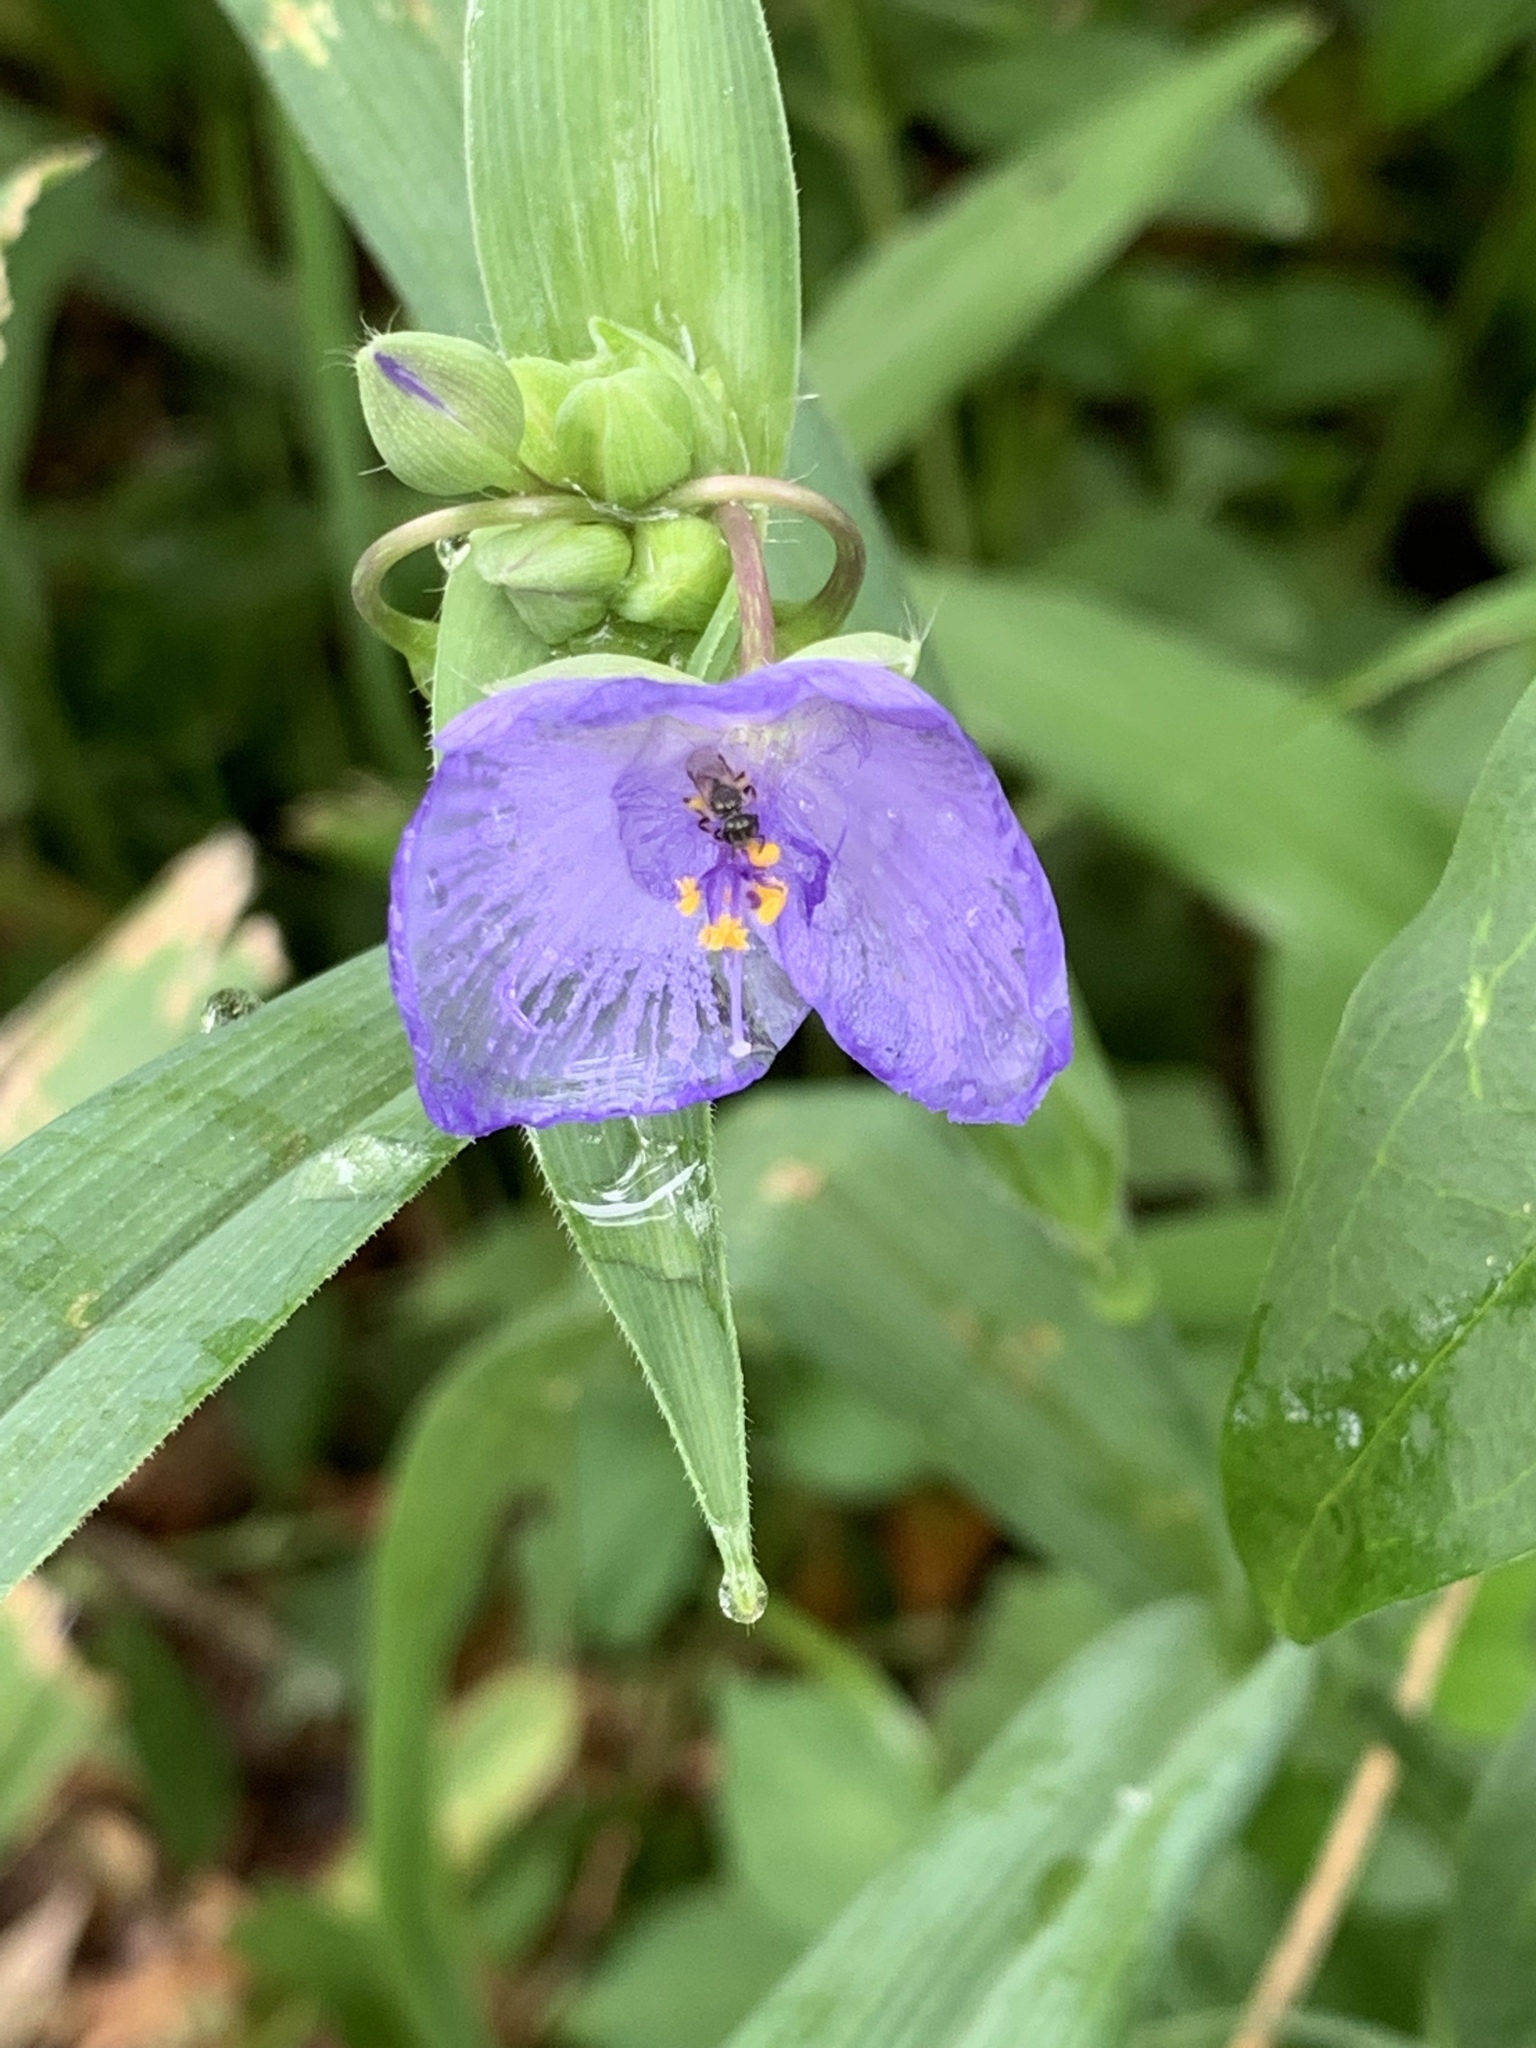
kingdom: Plantae
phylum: Tracheophyta
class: Liliopsida
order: Commelinales
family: Commelinaceae
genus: Tradescantia
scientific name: Tradescantia ohiensis
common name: Ohio spiderwort
